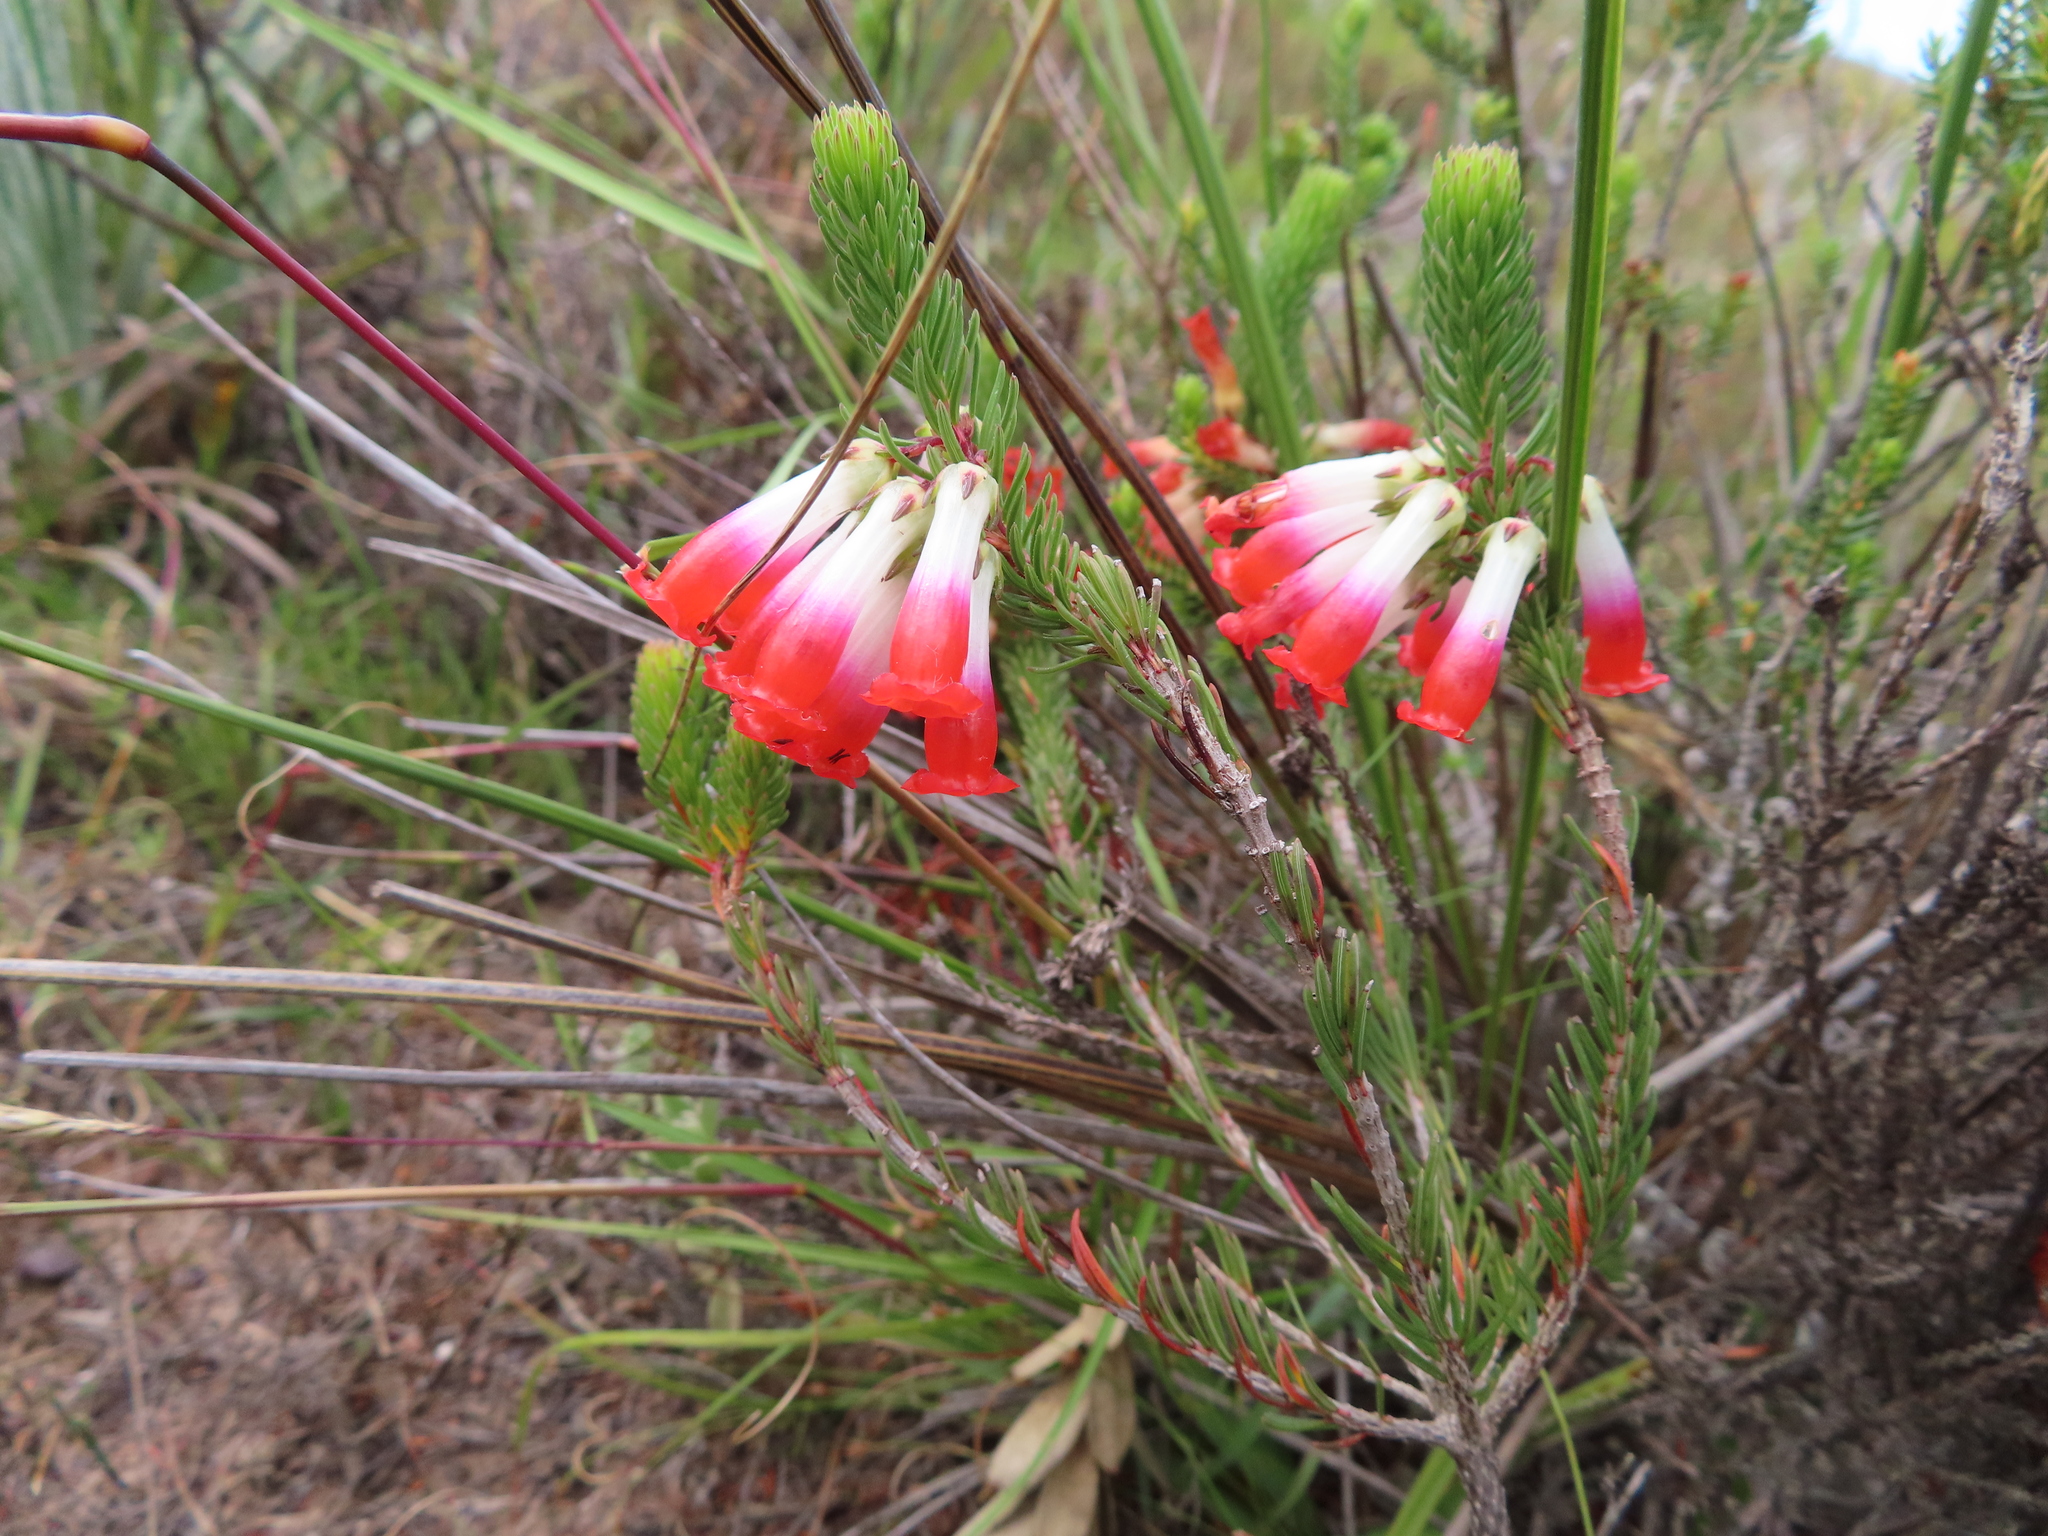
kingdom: Plantae
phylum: Tracheophyta
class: Magnoliopsida
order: Ericales
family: Ericaceae
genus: Erica
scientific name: Erica regia
